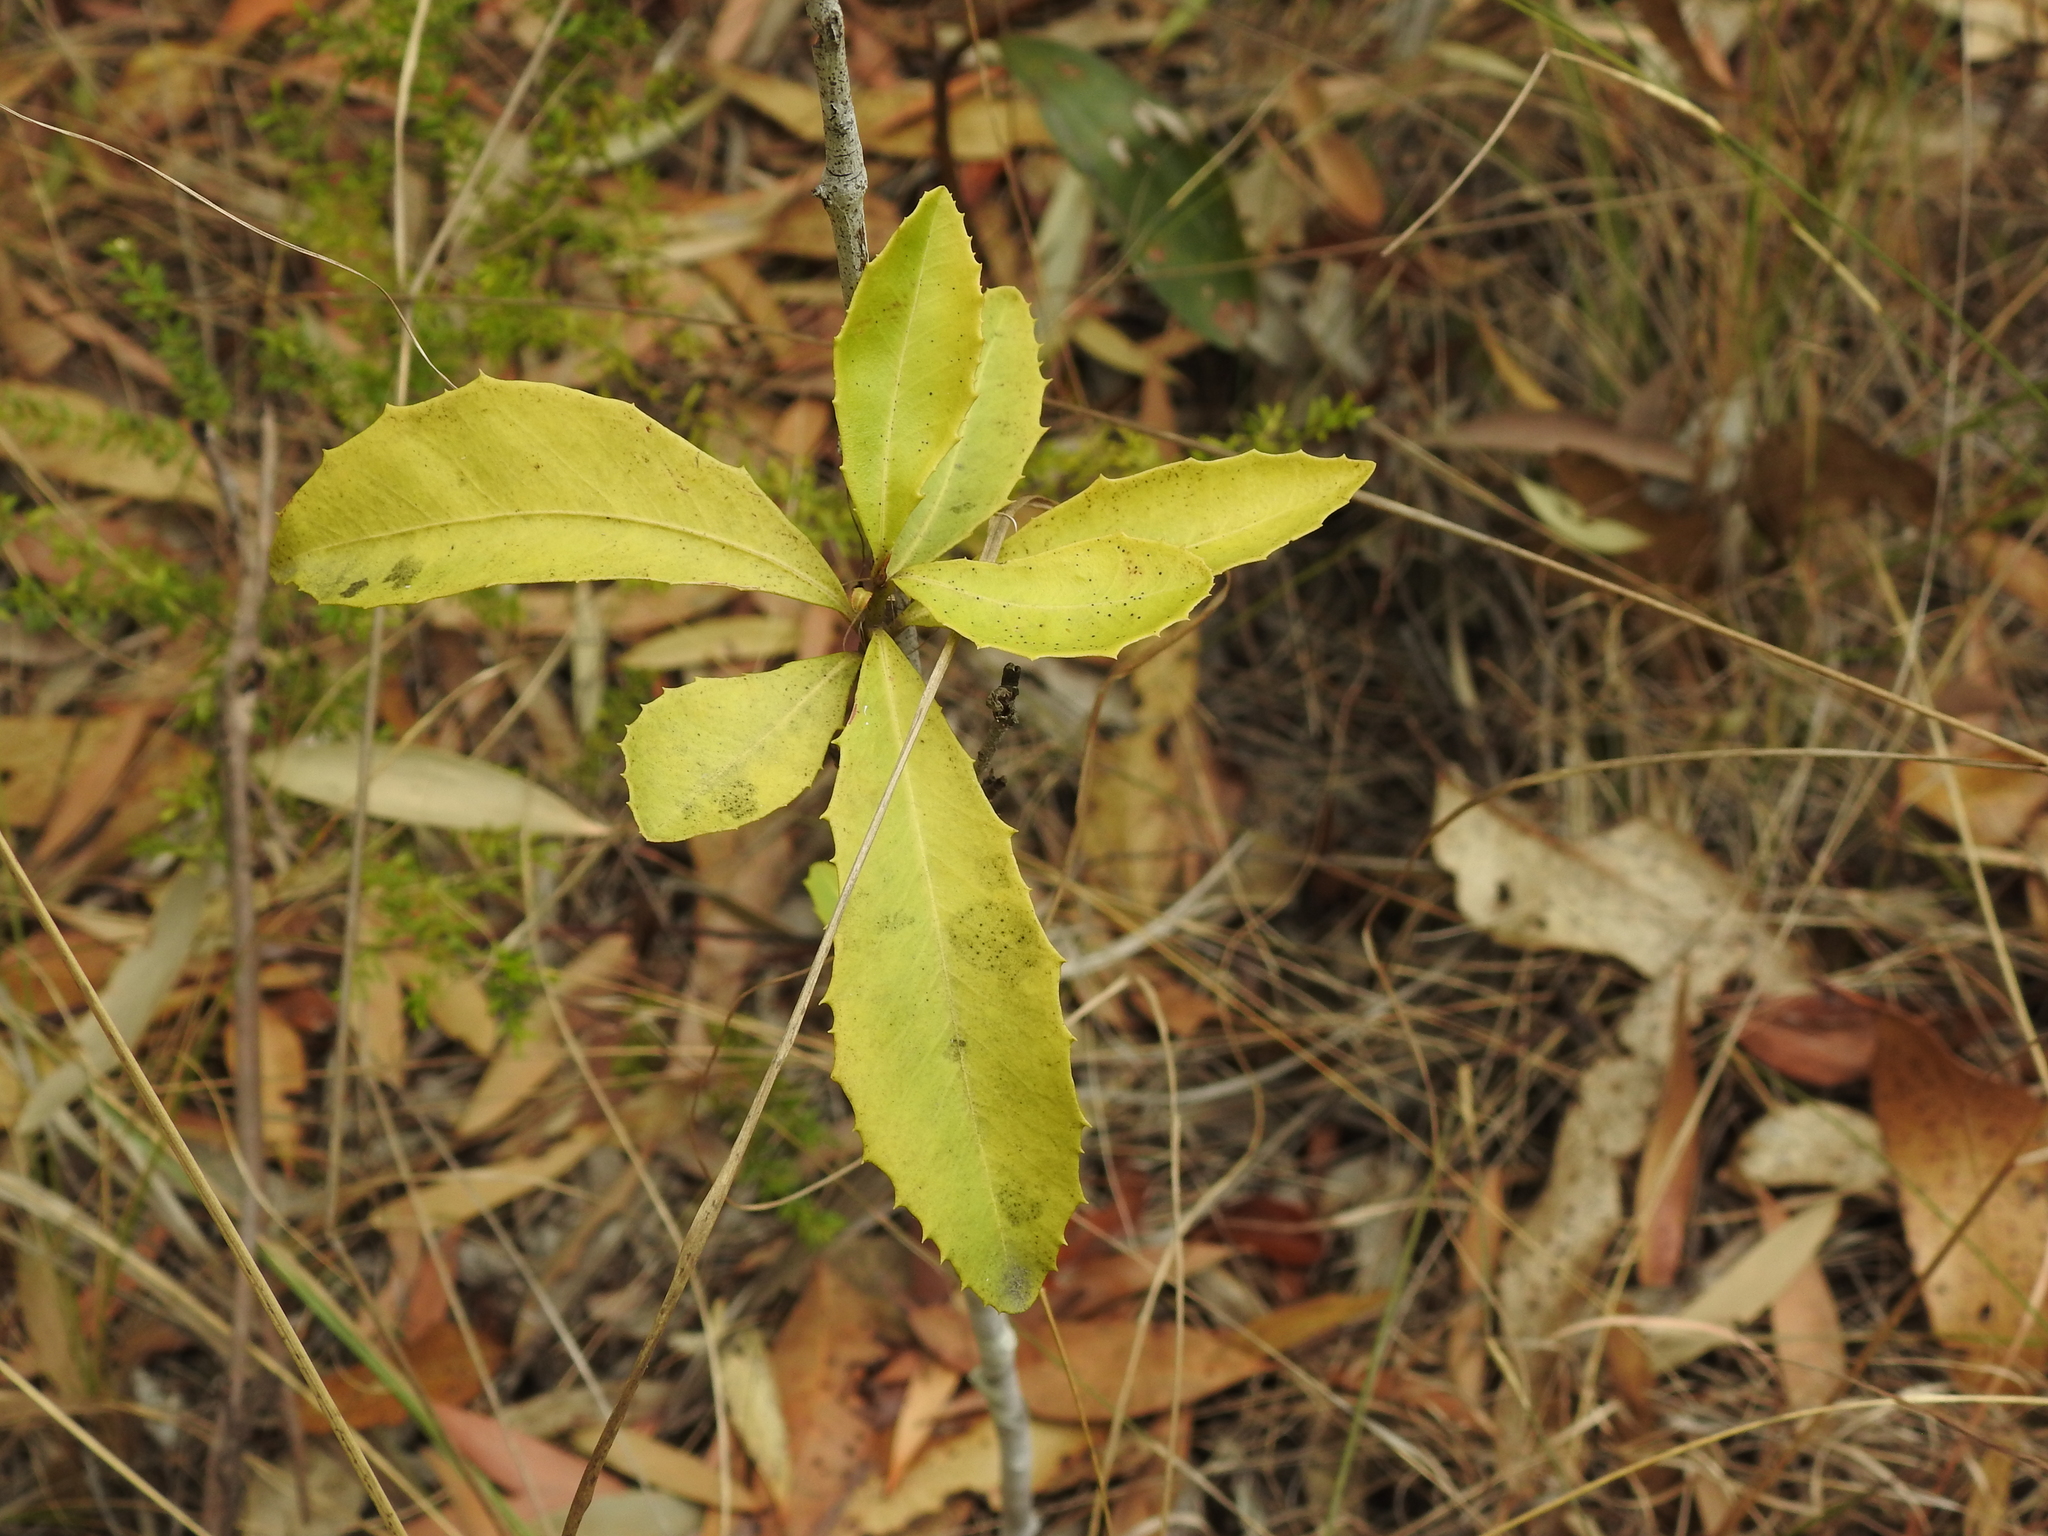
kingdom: Plantae
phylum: Tracheophyta
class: Magnoliopsida
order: Ericales
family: Primulaceae
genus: Myrsine
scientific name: Myrsine variabilis
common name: Brush muttonwood
